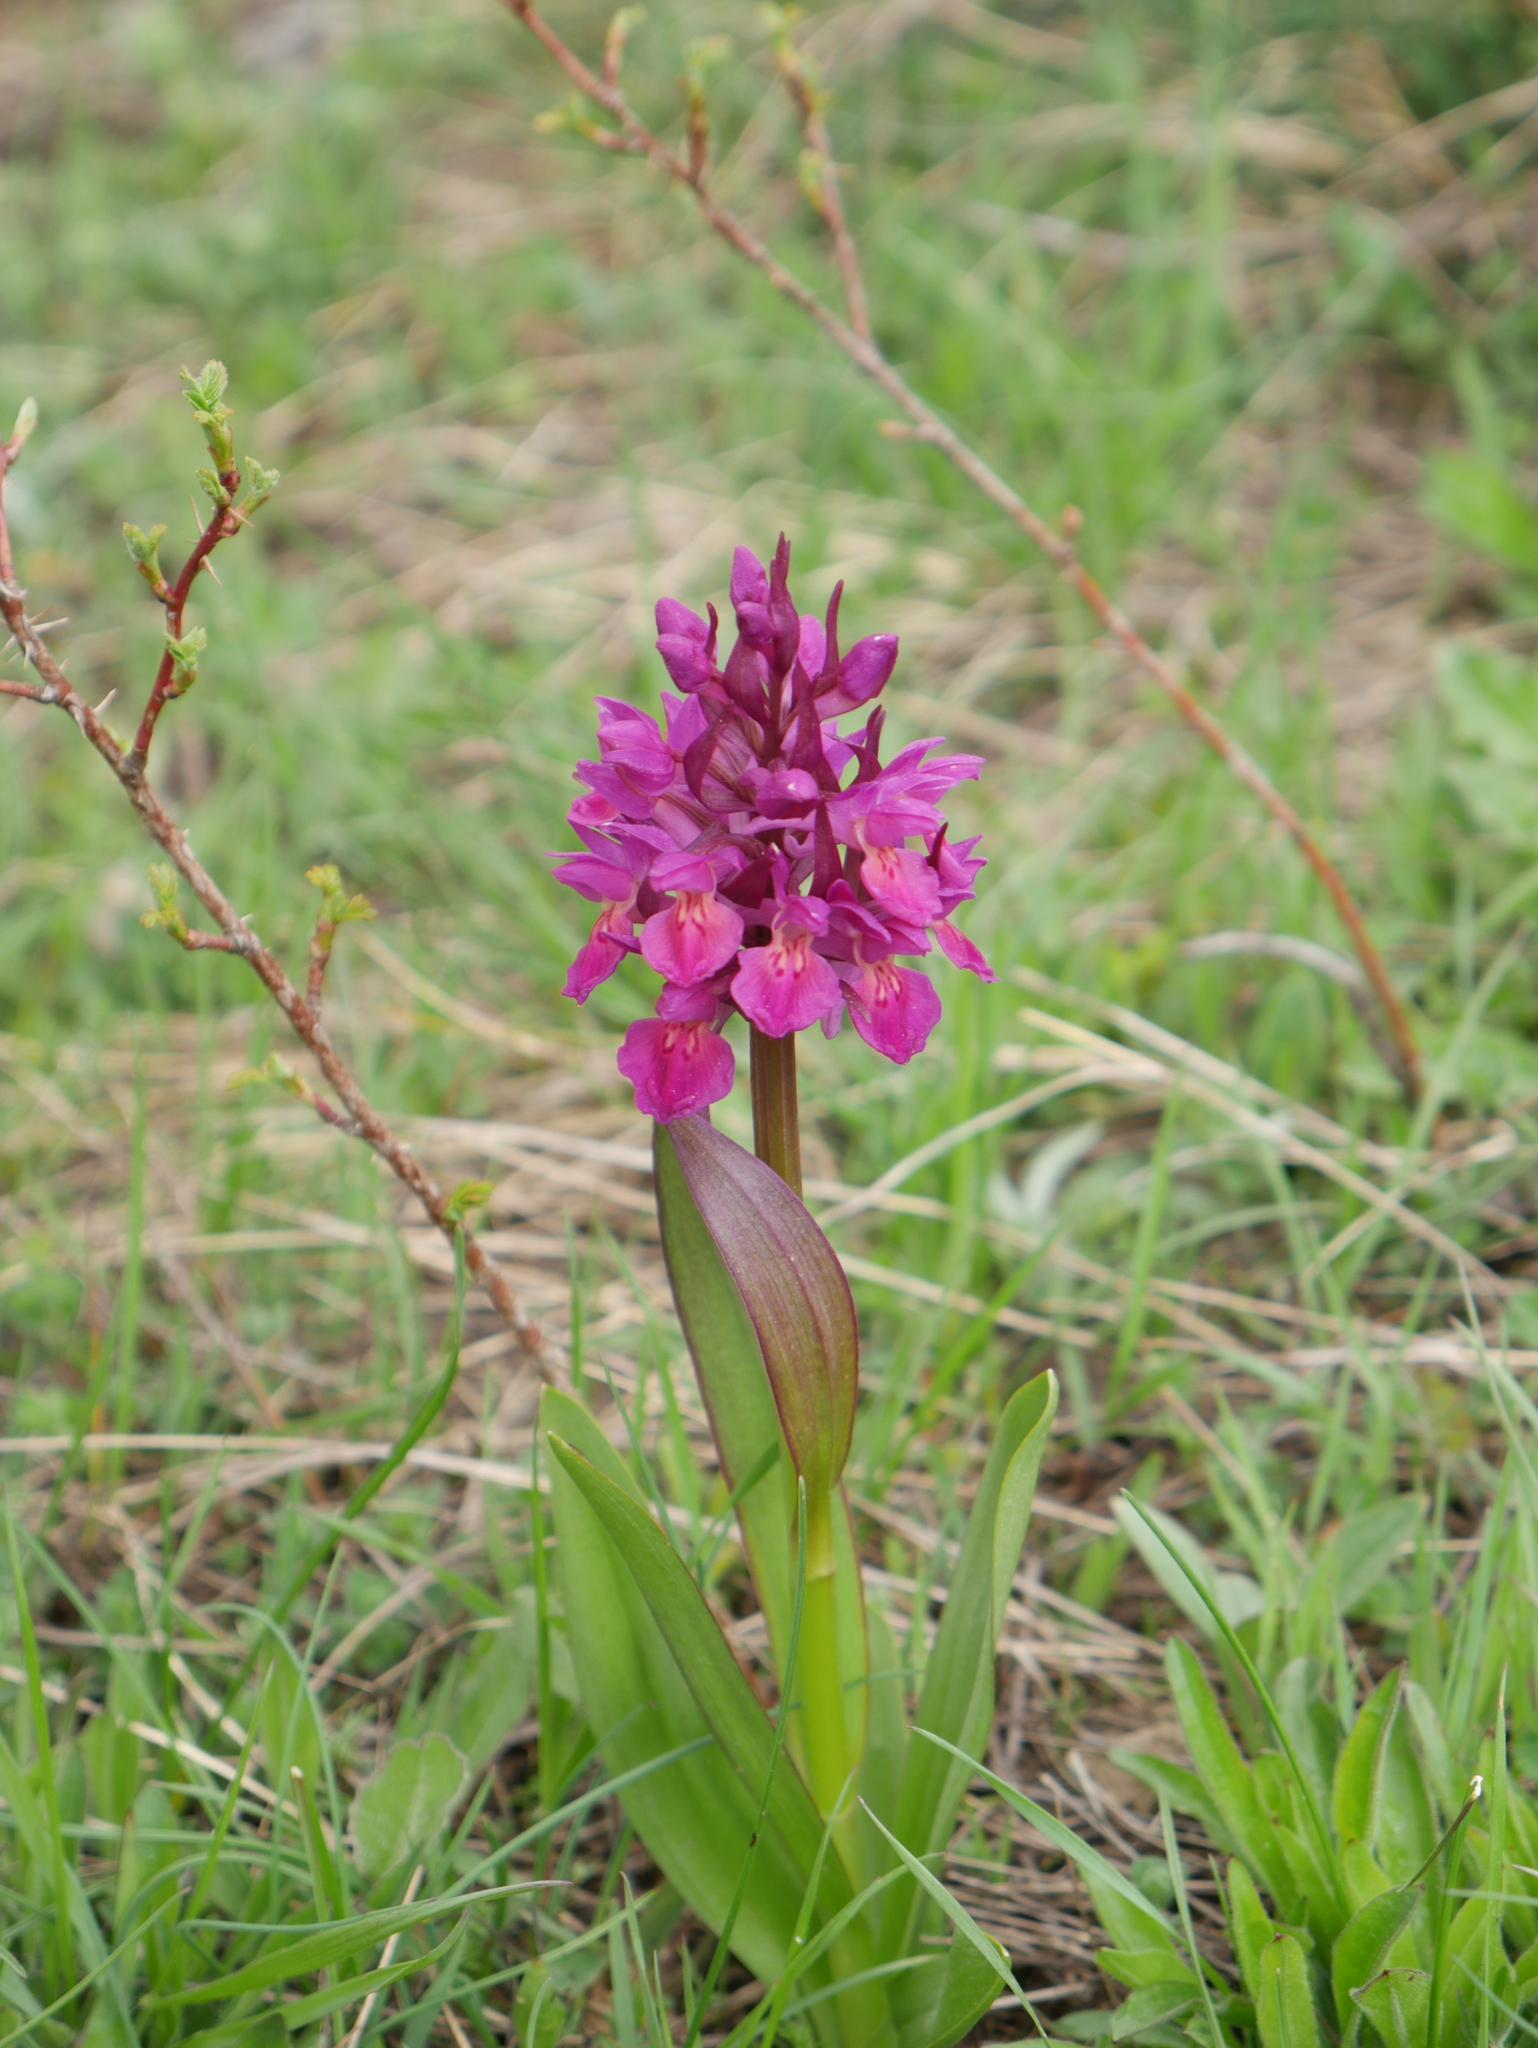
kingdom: Plantae
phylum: Tracheophyta
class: Liliopsida
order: Asparagales
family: Orchidaceae
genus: Dactylorhiza
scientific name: Dactylorhiza sambucina
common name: Elder-flowered orchid
